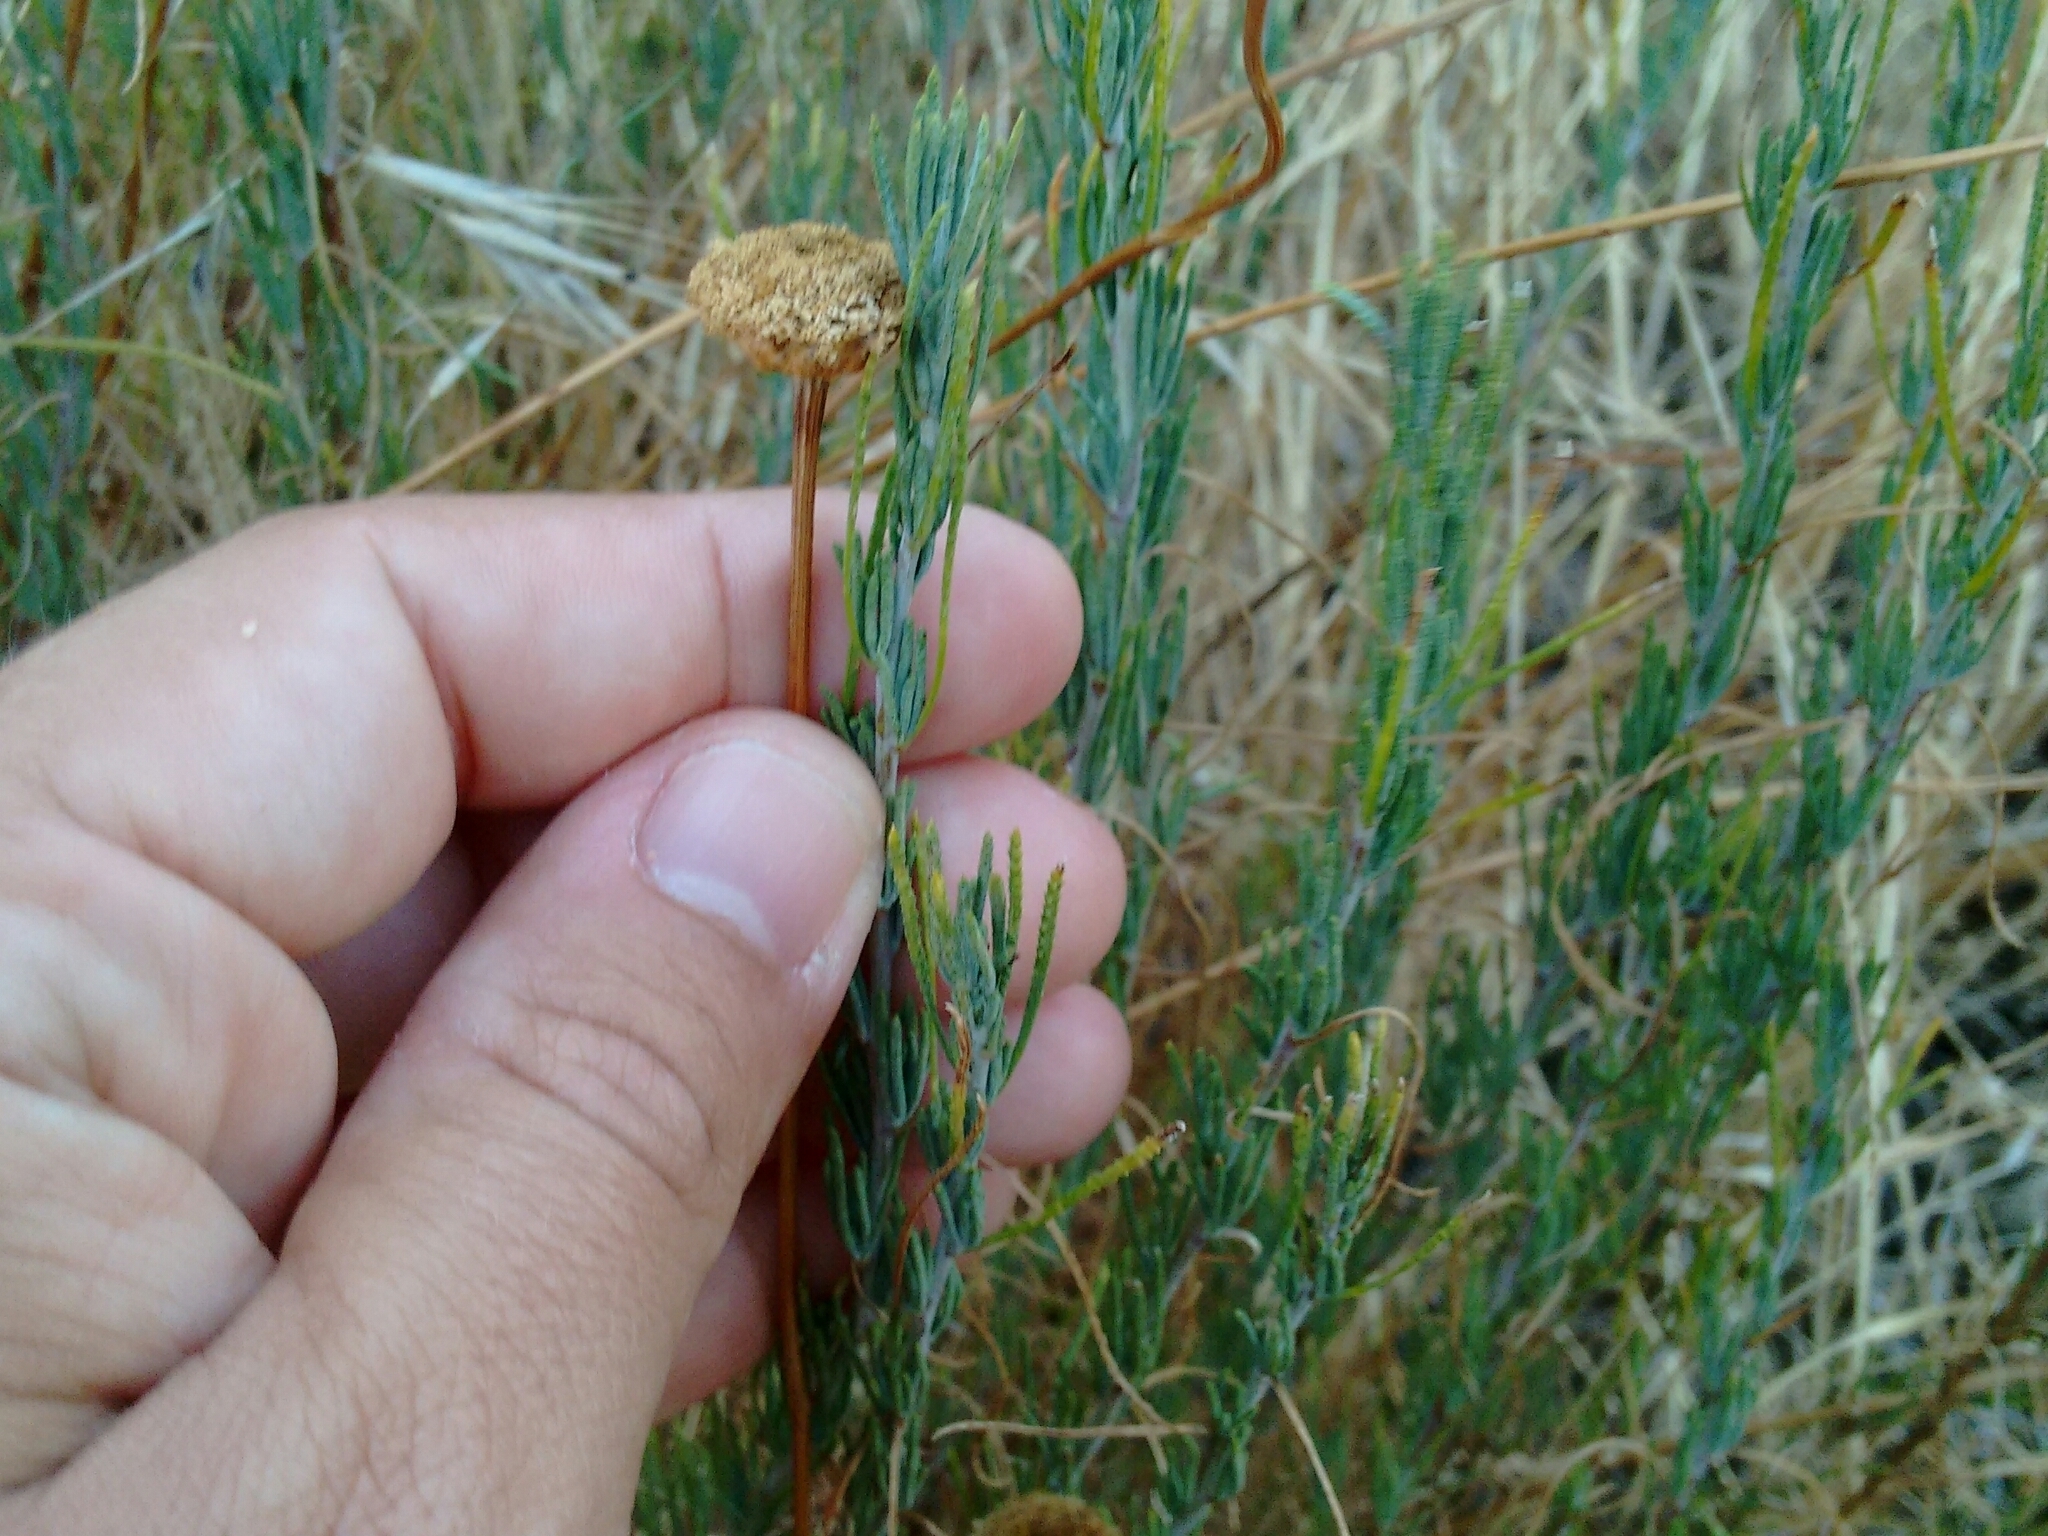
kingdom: Plantae
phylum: Tracheophyta
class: Magnoliopsida
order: Asterales
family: Asteraceae
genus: Santolina
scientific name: Santolina rosmarinifolia
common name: Holy-flax
